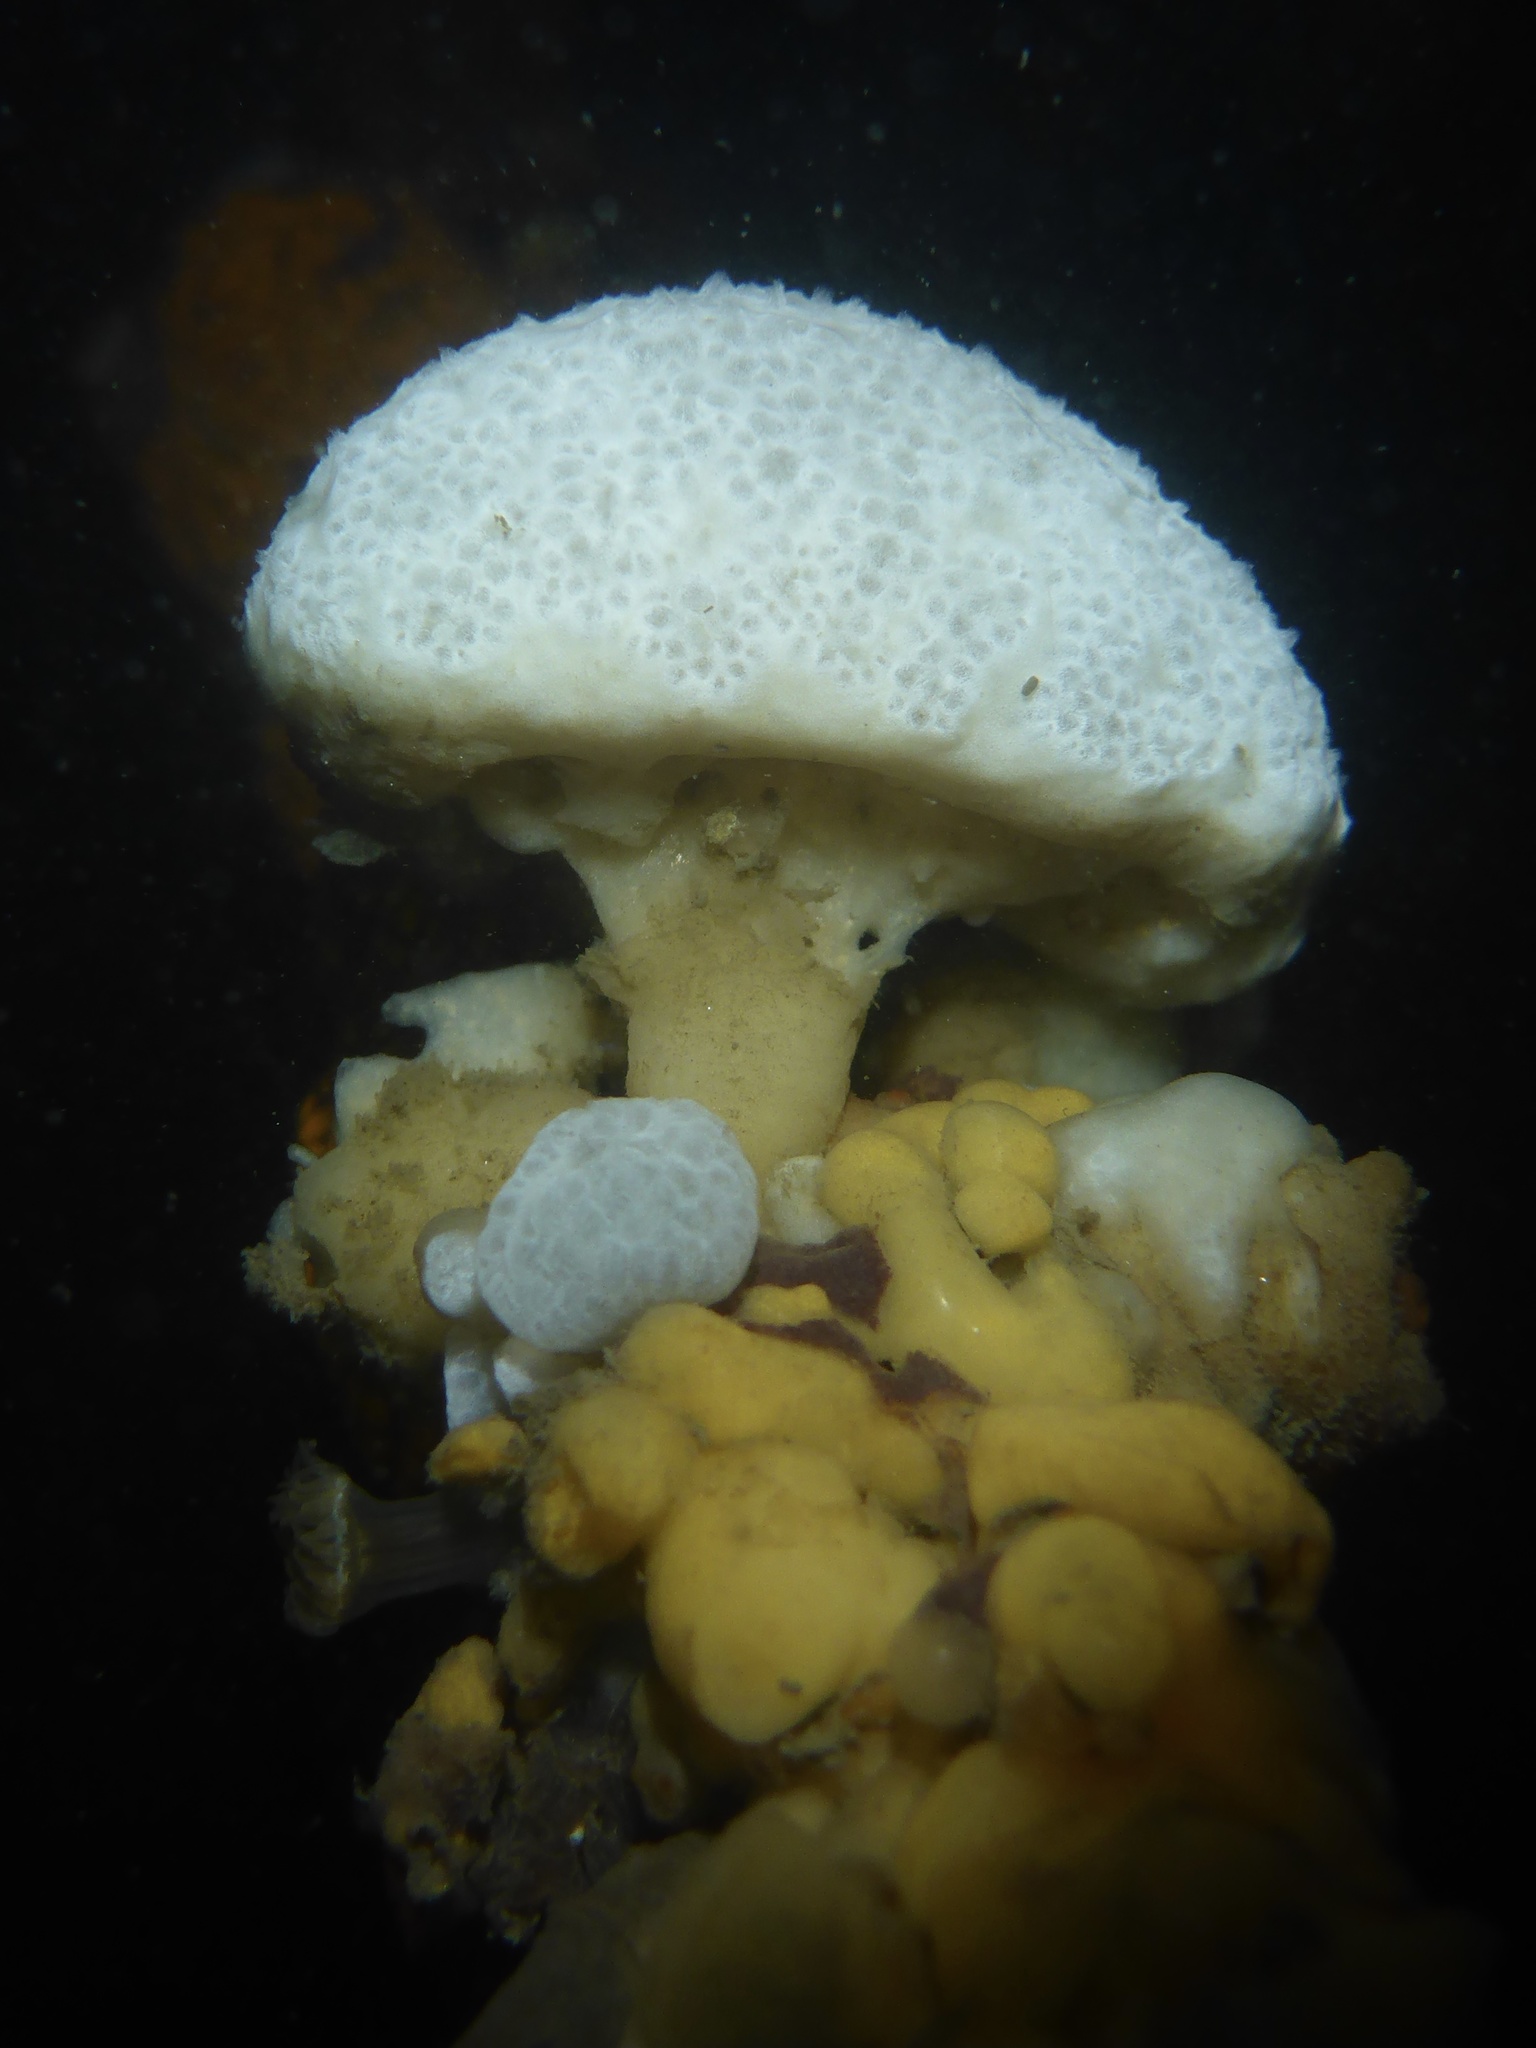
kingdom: Animalia
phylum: Chordata
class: Ascidiacea
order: Aplousobranchia
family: Holozoidae
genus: Distaplia
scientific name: Distaplia occidentalis
